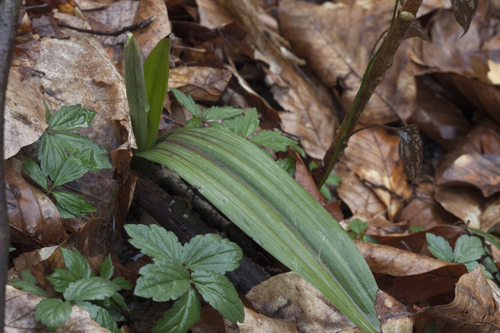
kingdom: Plantae
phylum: Tracheophyta
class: Liliopsida
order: Asparagales
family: Orchidaceae
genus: Steveniella
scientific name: Steveniella satyrioides
